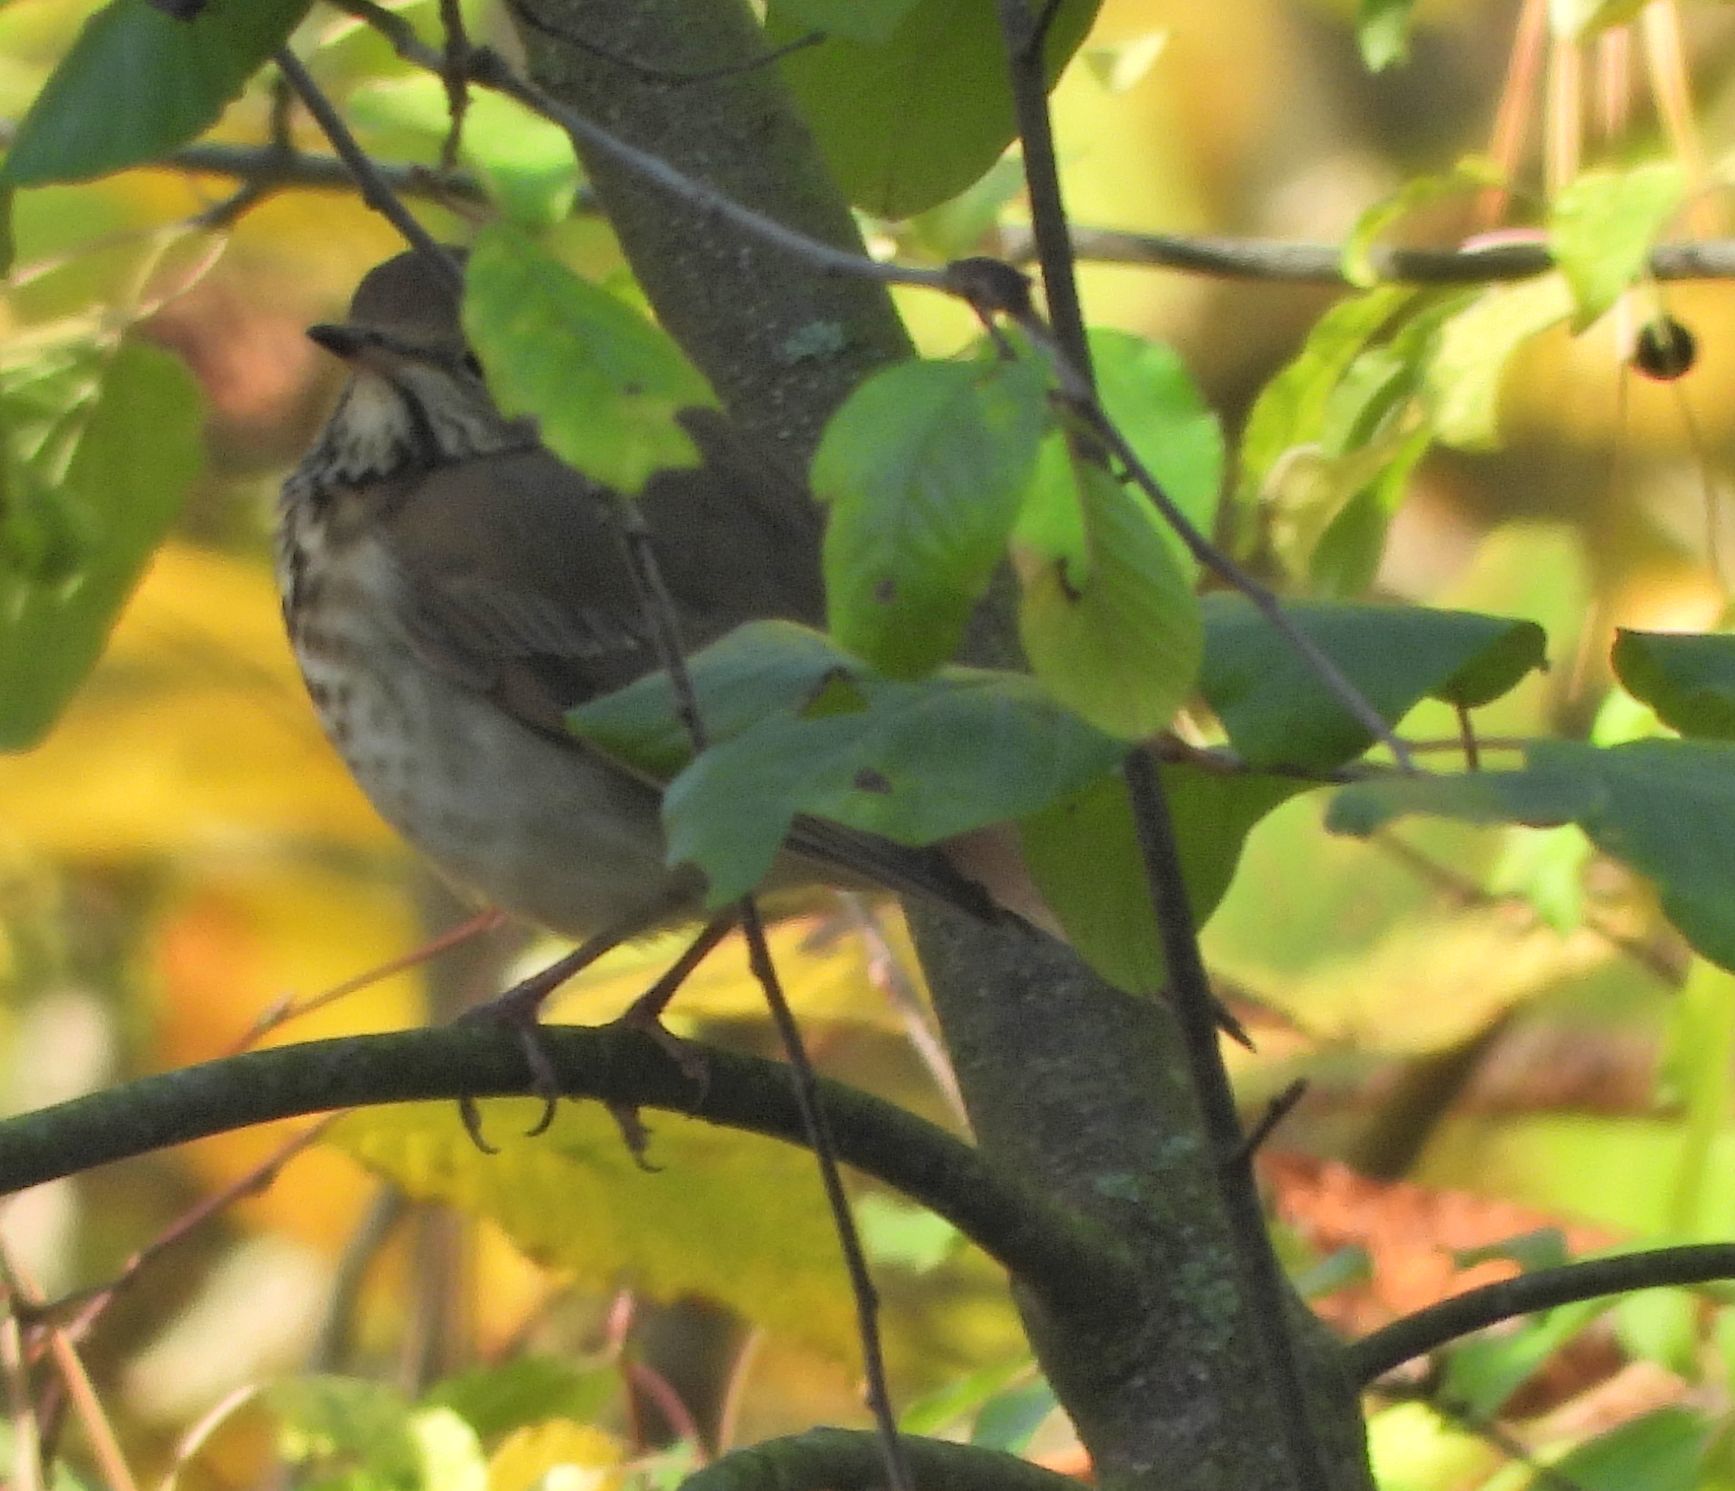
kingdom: Animalia
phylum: Chordata
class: Aves
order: Passeriformes
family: Turdidae
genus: Catharus
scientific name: Catharus guttatus
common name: Hermit thrush
